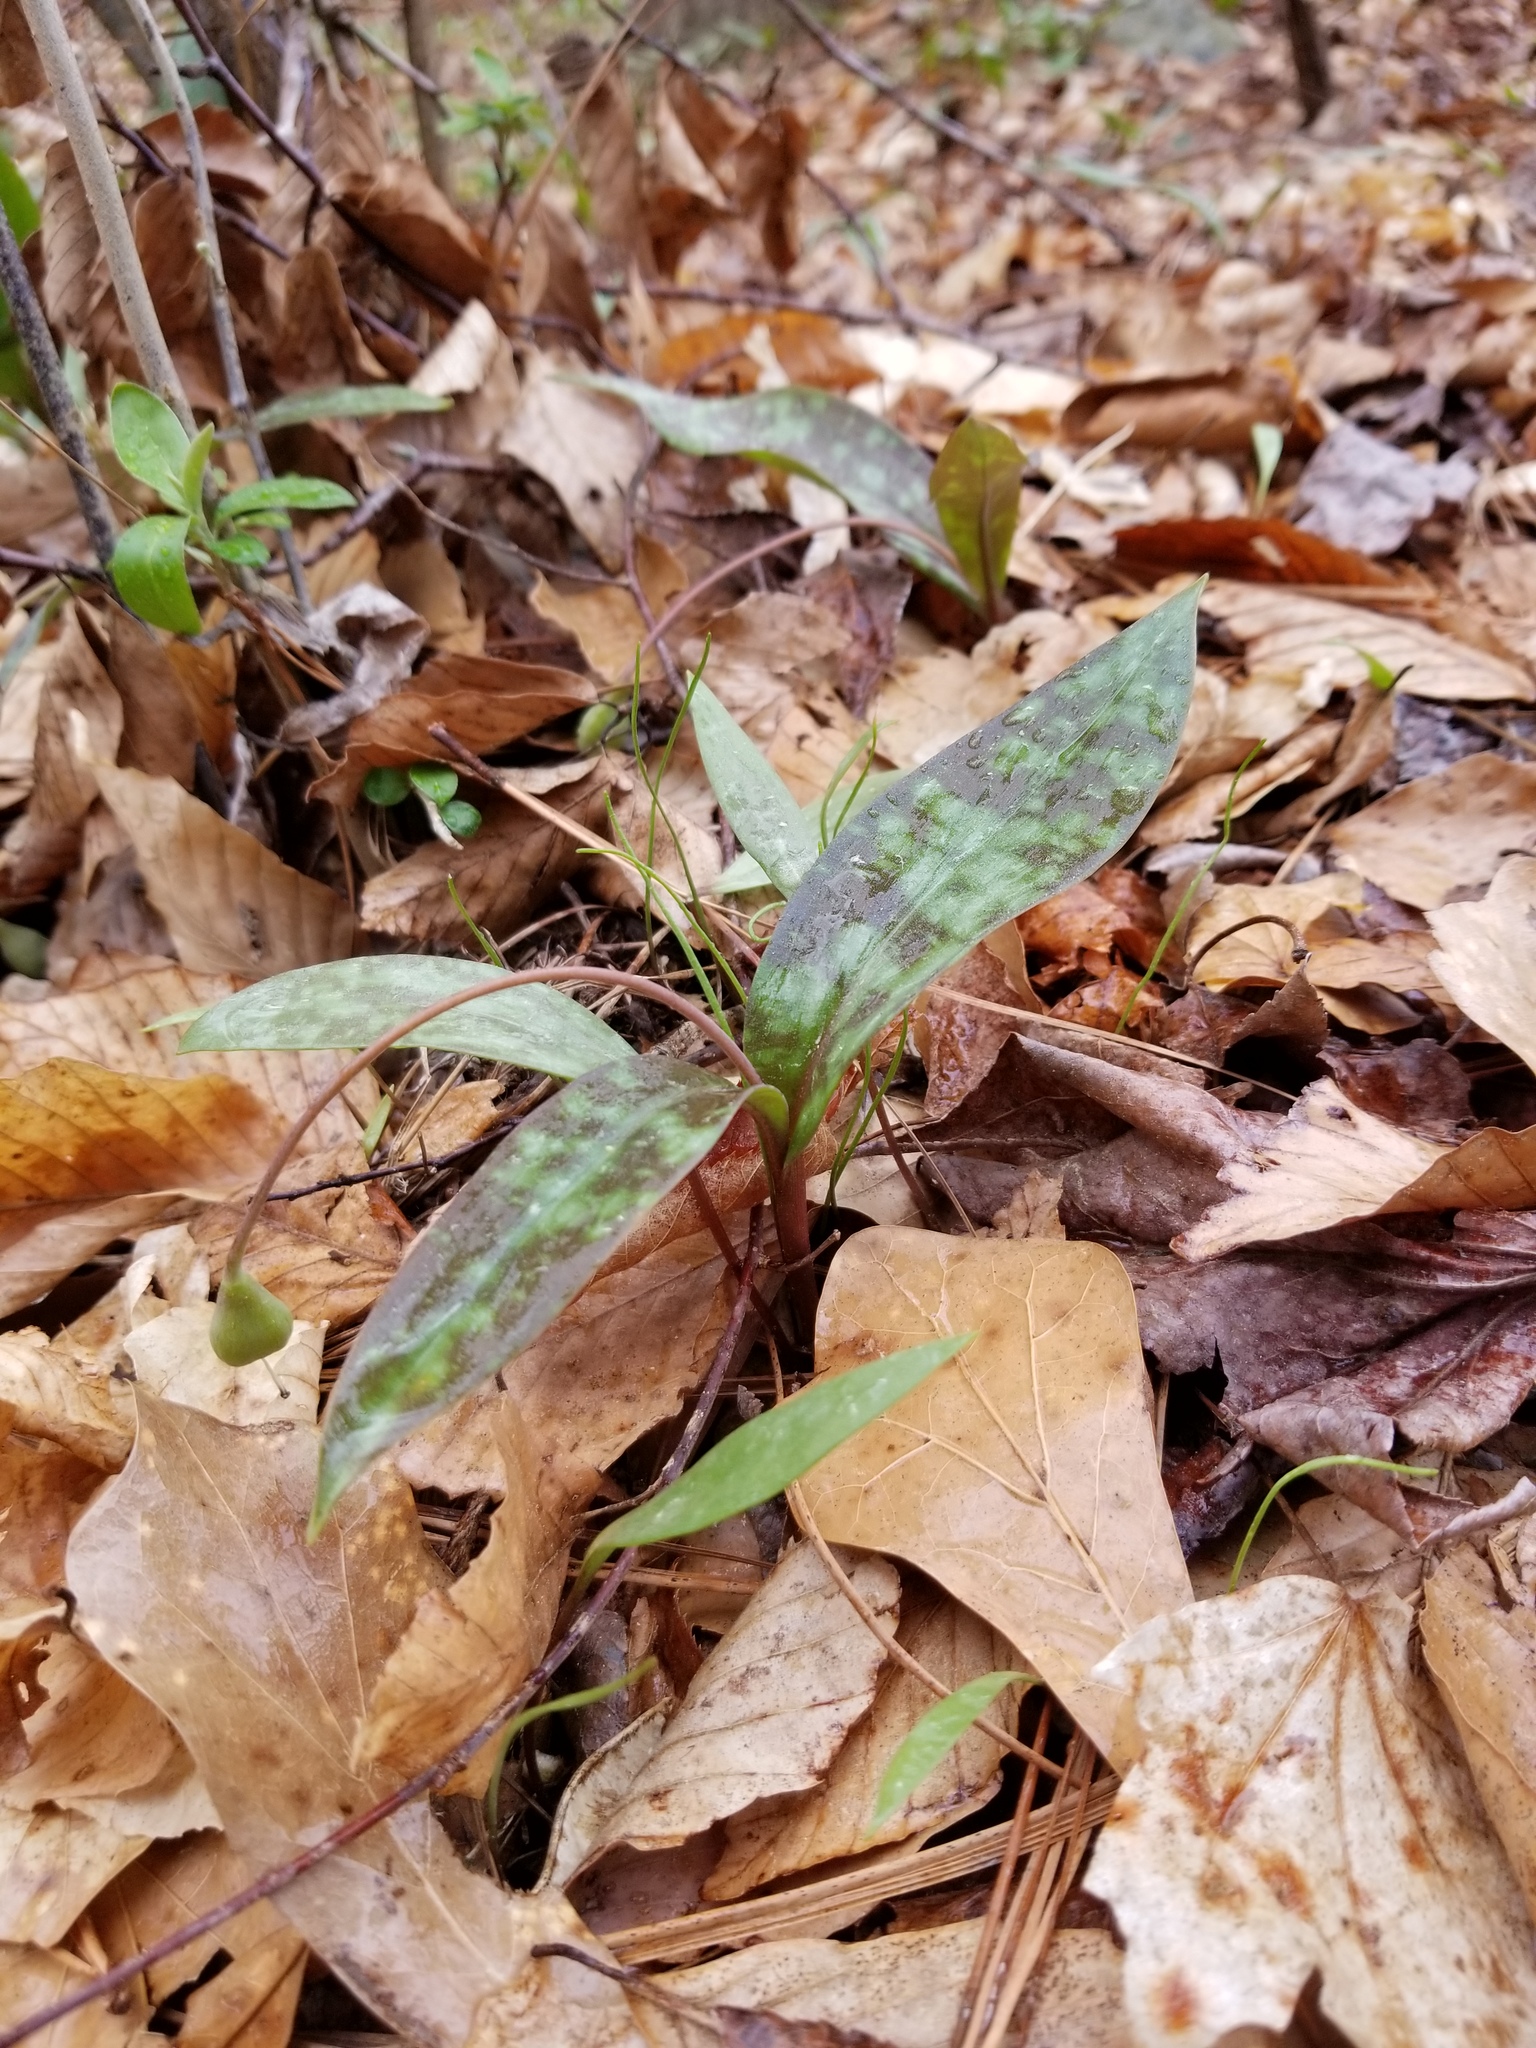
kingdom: Plantae
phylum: Tracheophyta
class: Liliopsida
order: Liliales
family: Liliaceae
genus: Erythronium
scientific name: Erythronium umbilicatum
